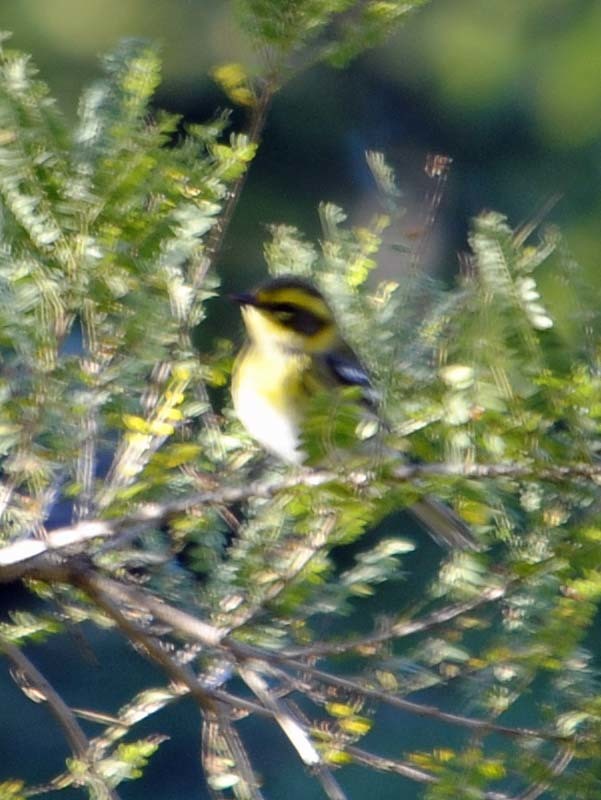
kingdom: Animalia
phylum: Chordata
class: Aves
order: Passeriformes
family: Parulidae
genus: Setophaga
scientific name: Setophaga townsendi
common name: Townsend's warbler
